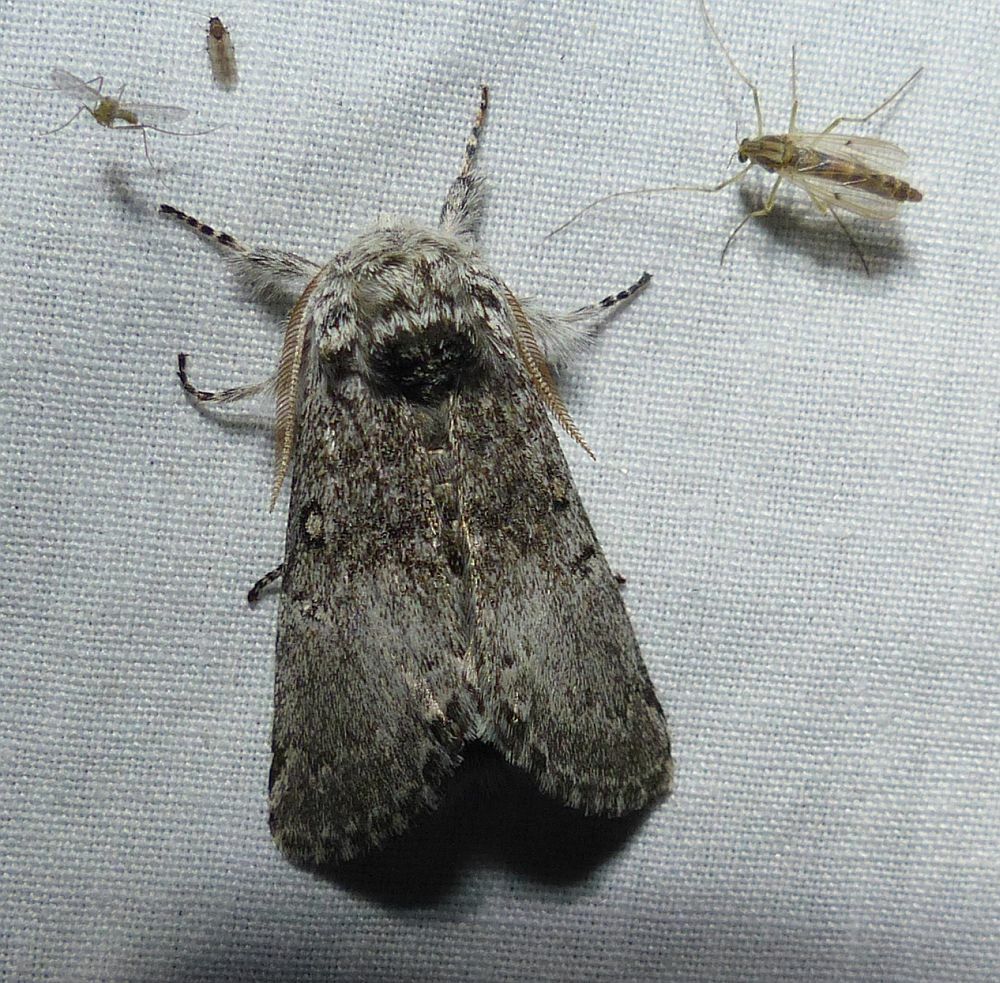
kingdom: Animalia
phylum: Arthropoda
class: Insecta
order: Lepidoptera
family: Noctuidae
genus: Colocasia
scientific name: Colocasia propinquilinea
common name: Close-banded demas
